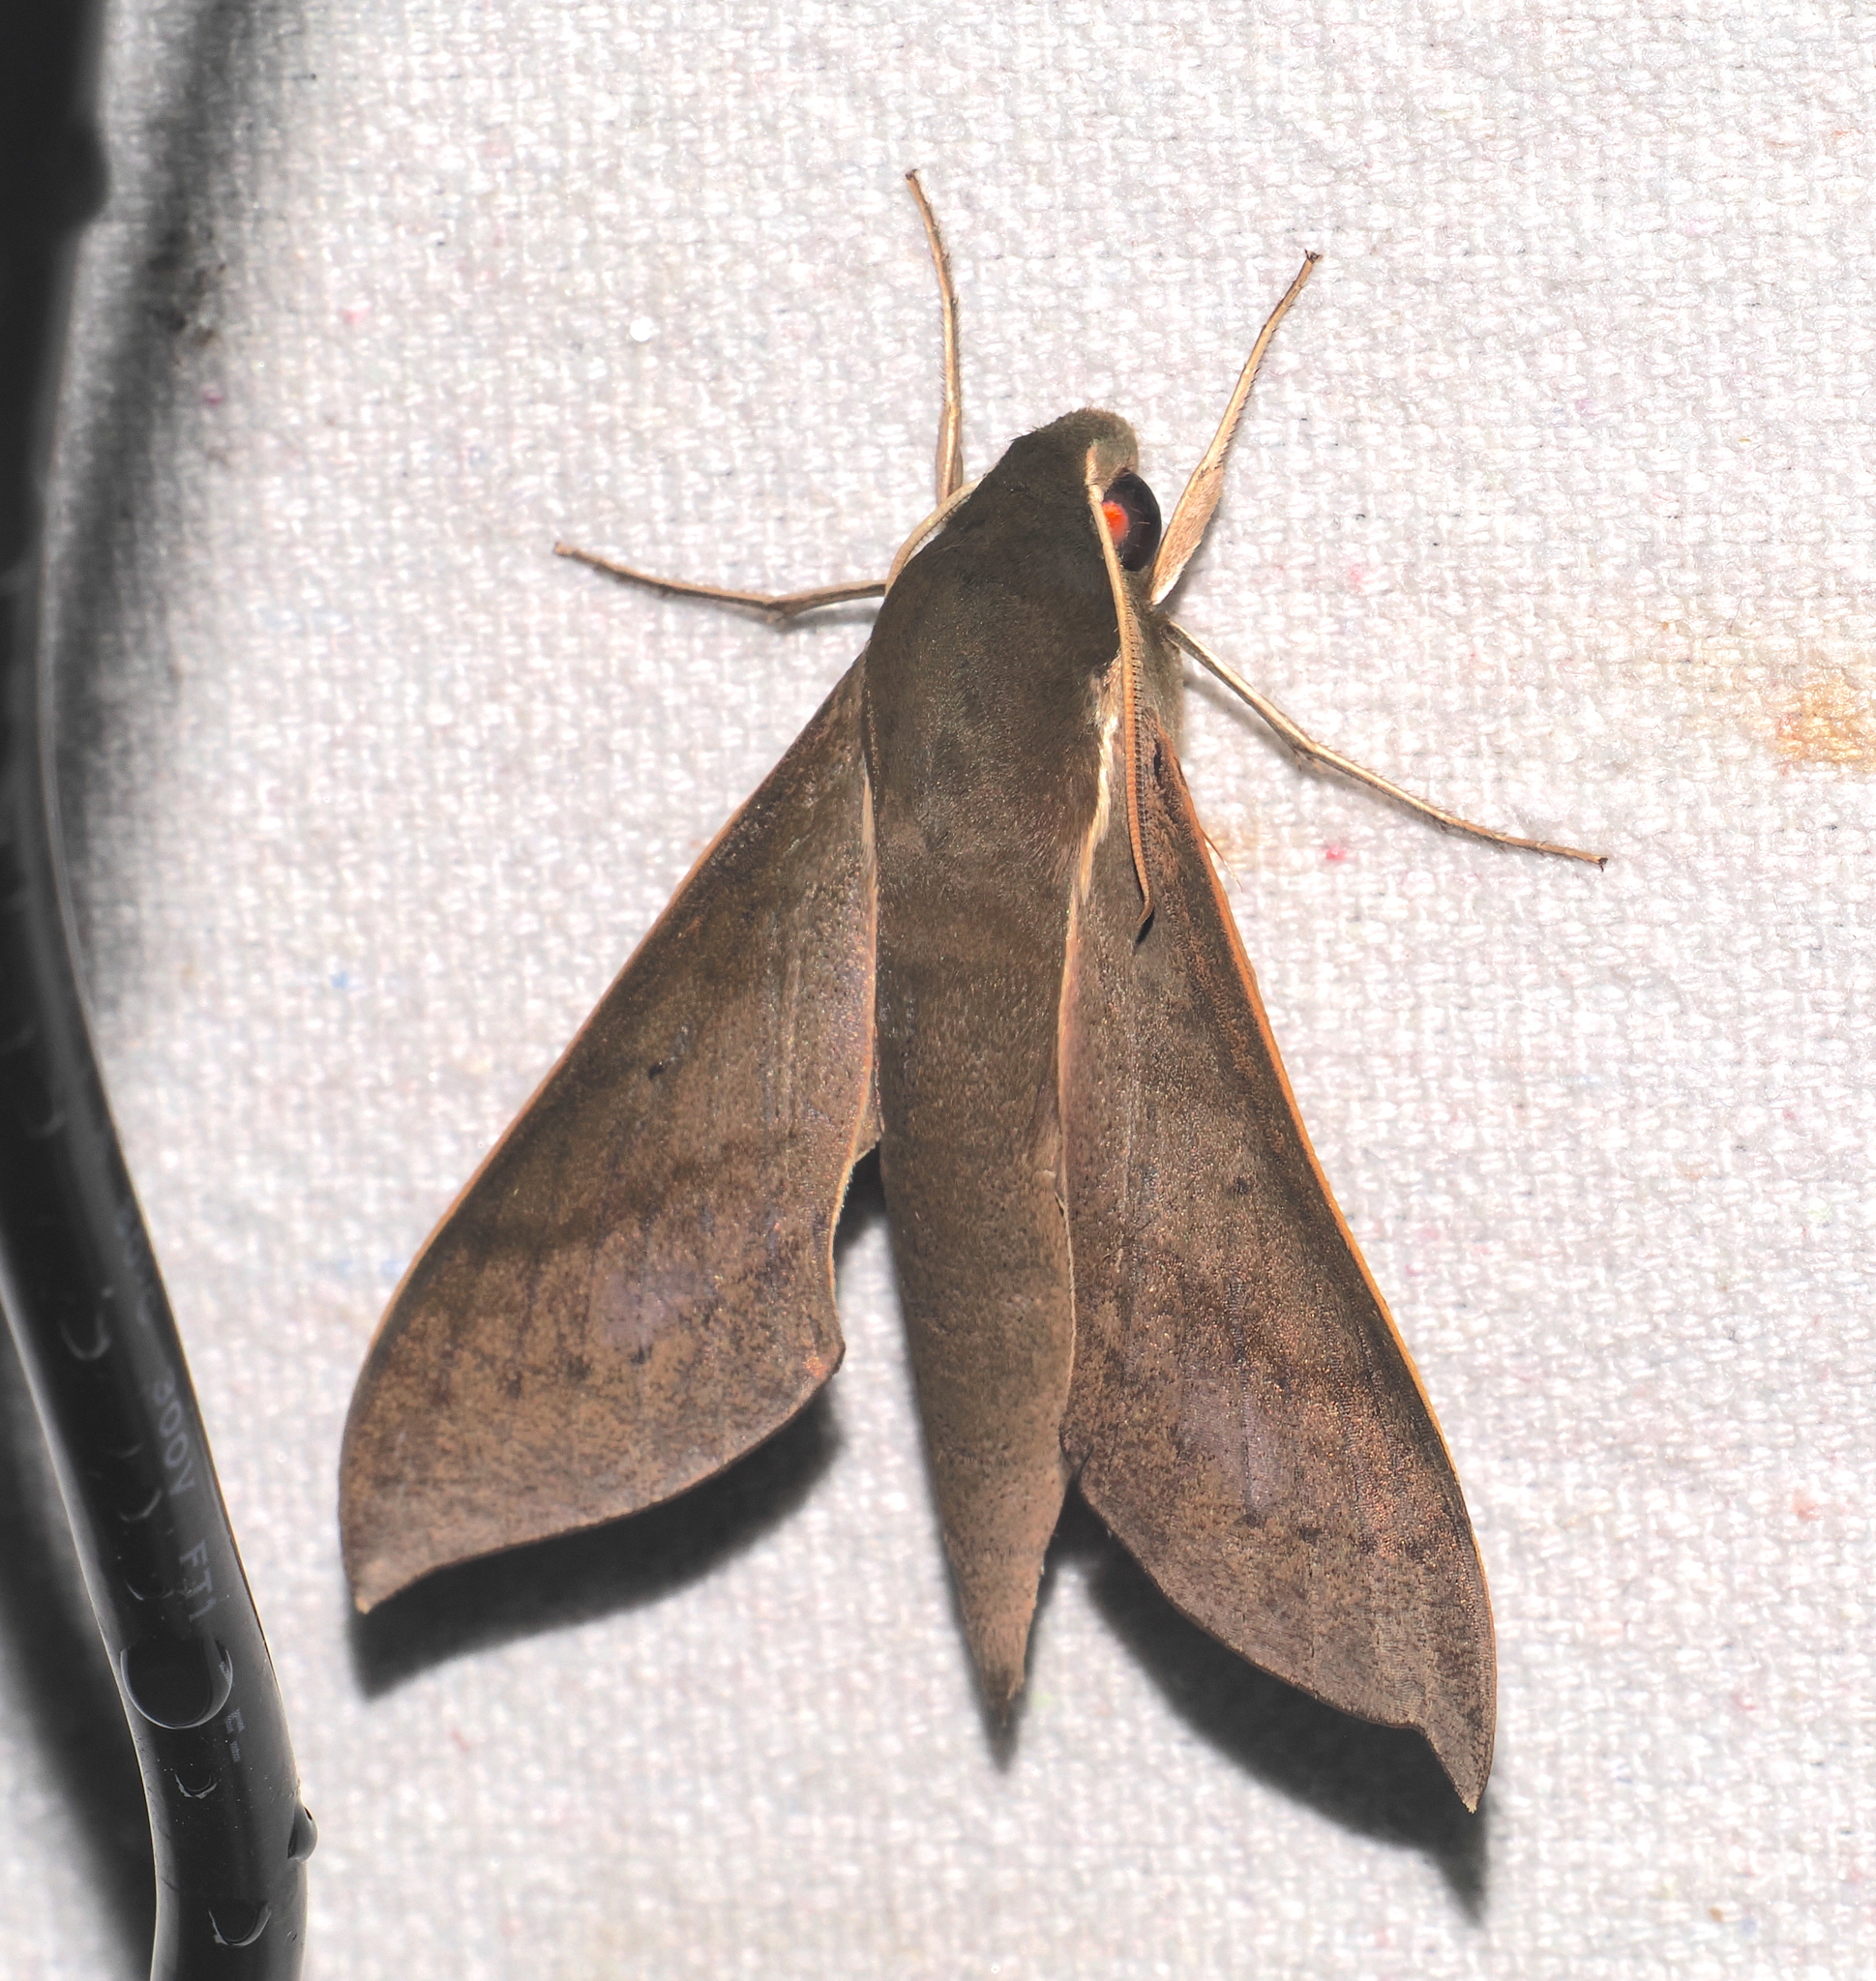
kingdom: Animalia
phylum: Arthropoda
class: Insecta
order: Lepidoptera
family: Sphingidae
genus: Xylophanes
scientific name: Xylophanes porcus
